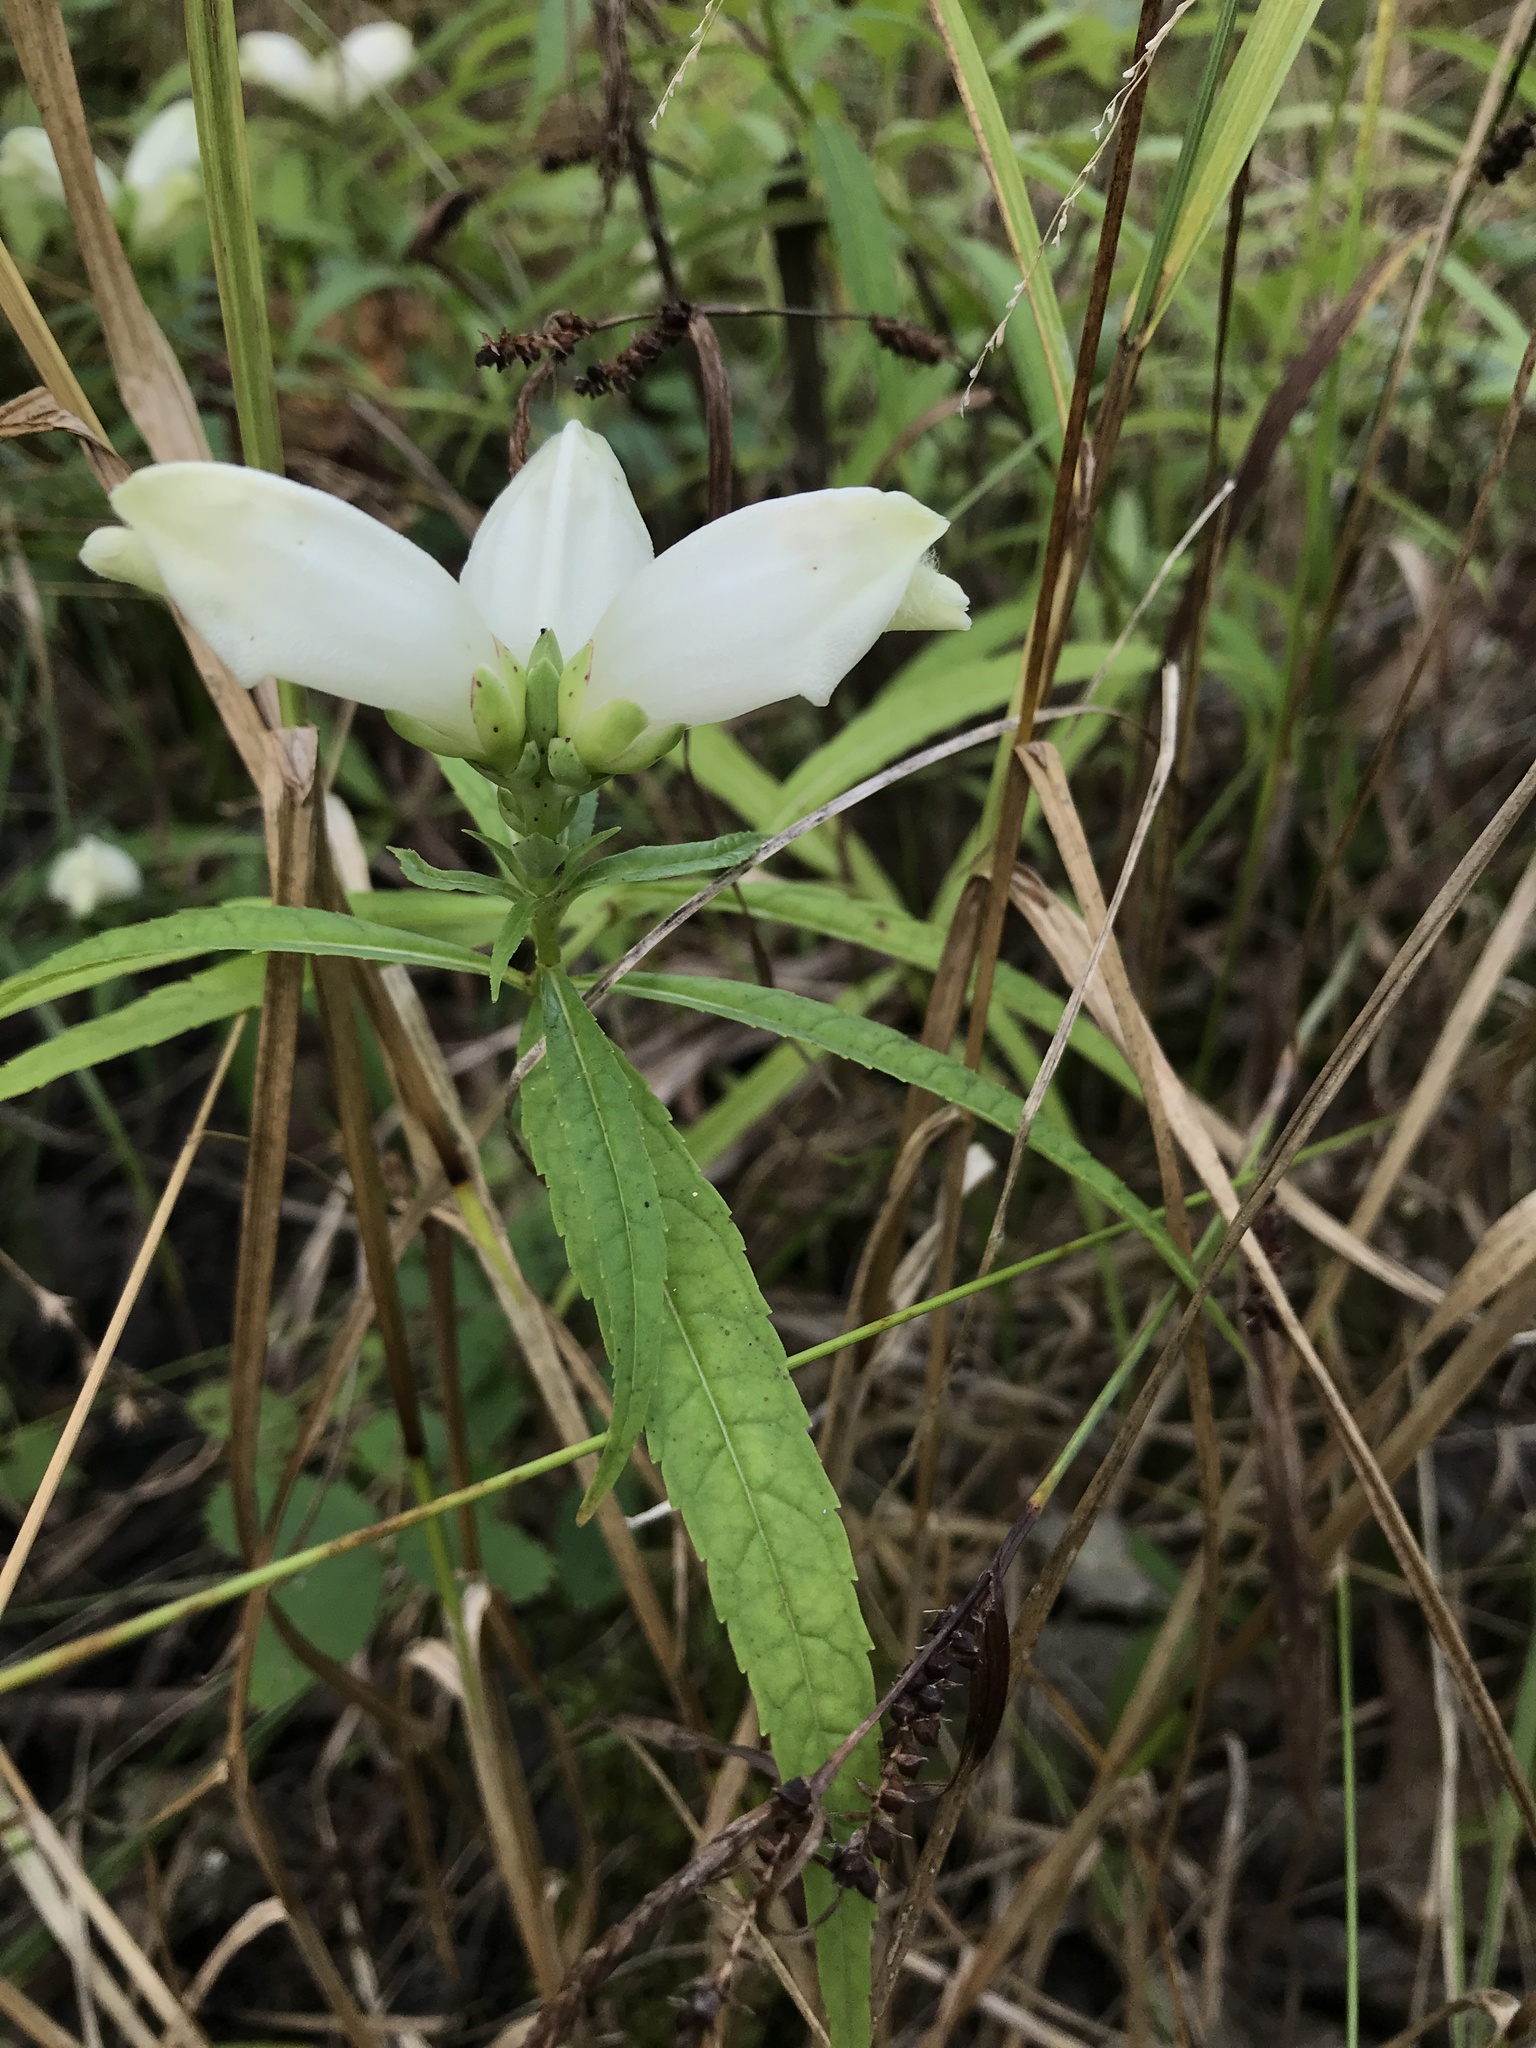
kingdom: Plantae
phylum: Tracheophyta
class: Magnoliopsida
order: Lamiales
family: Plantaginaceae
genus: Chelone
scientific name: Chelone glabra
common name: Snakehead
